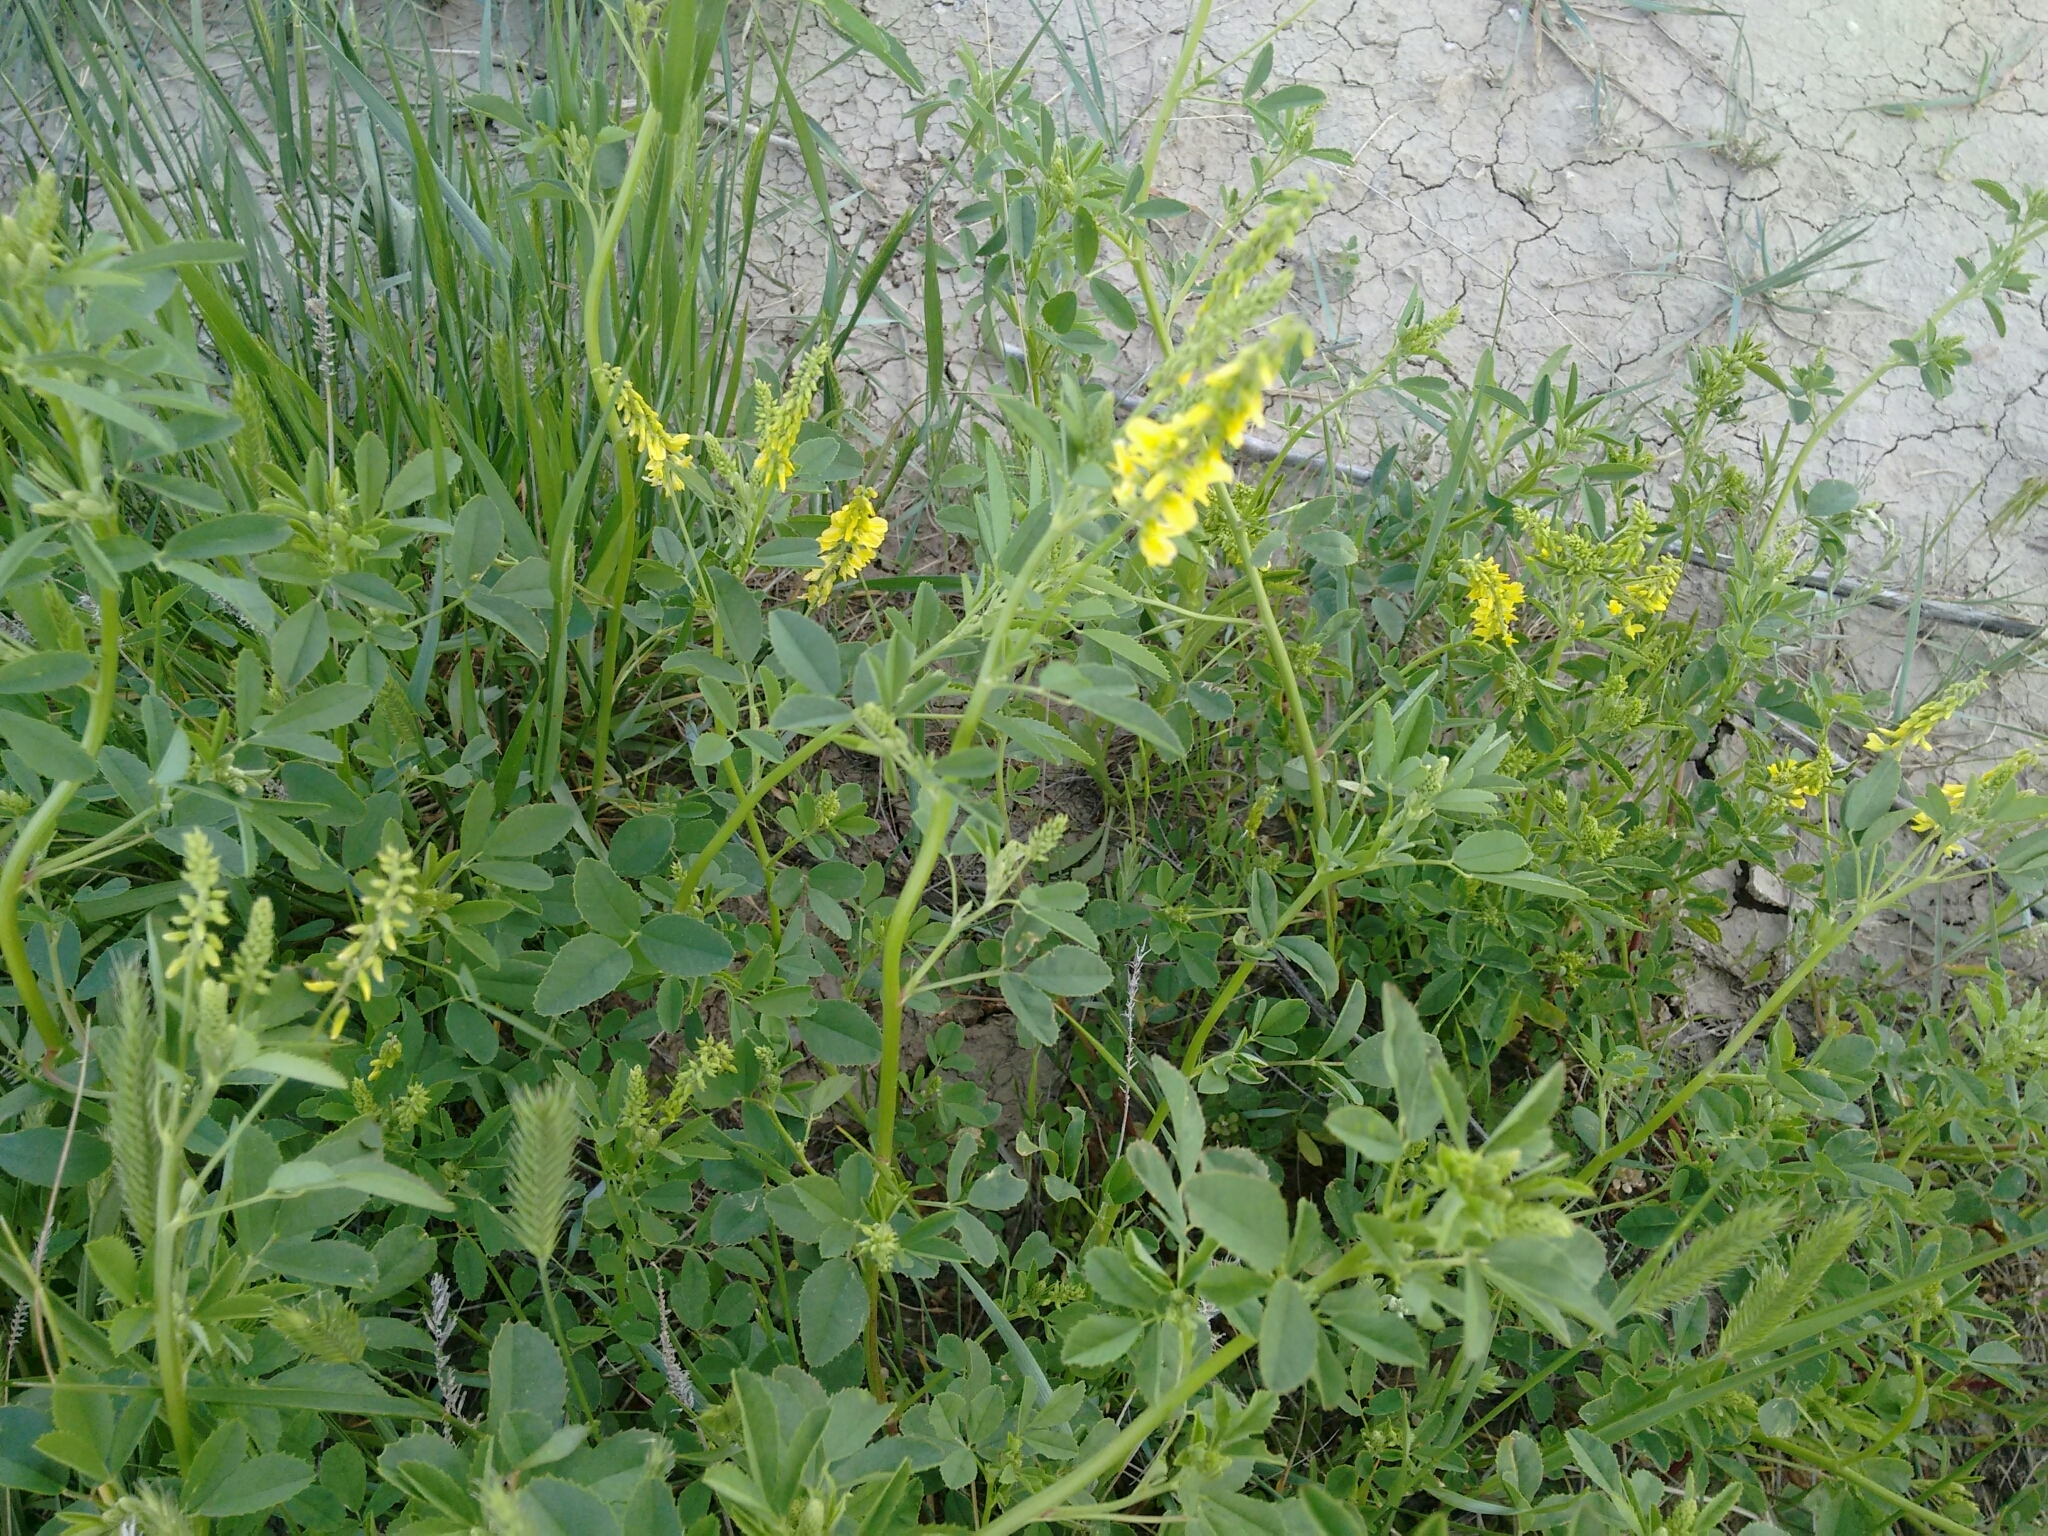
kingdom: Plantae
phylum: Tracheophyta
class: Magnoliopsida
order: Fabales
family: Fabaceae
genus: Melilotus
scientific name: Melilotus officinalis
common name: Sweetclover
